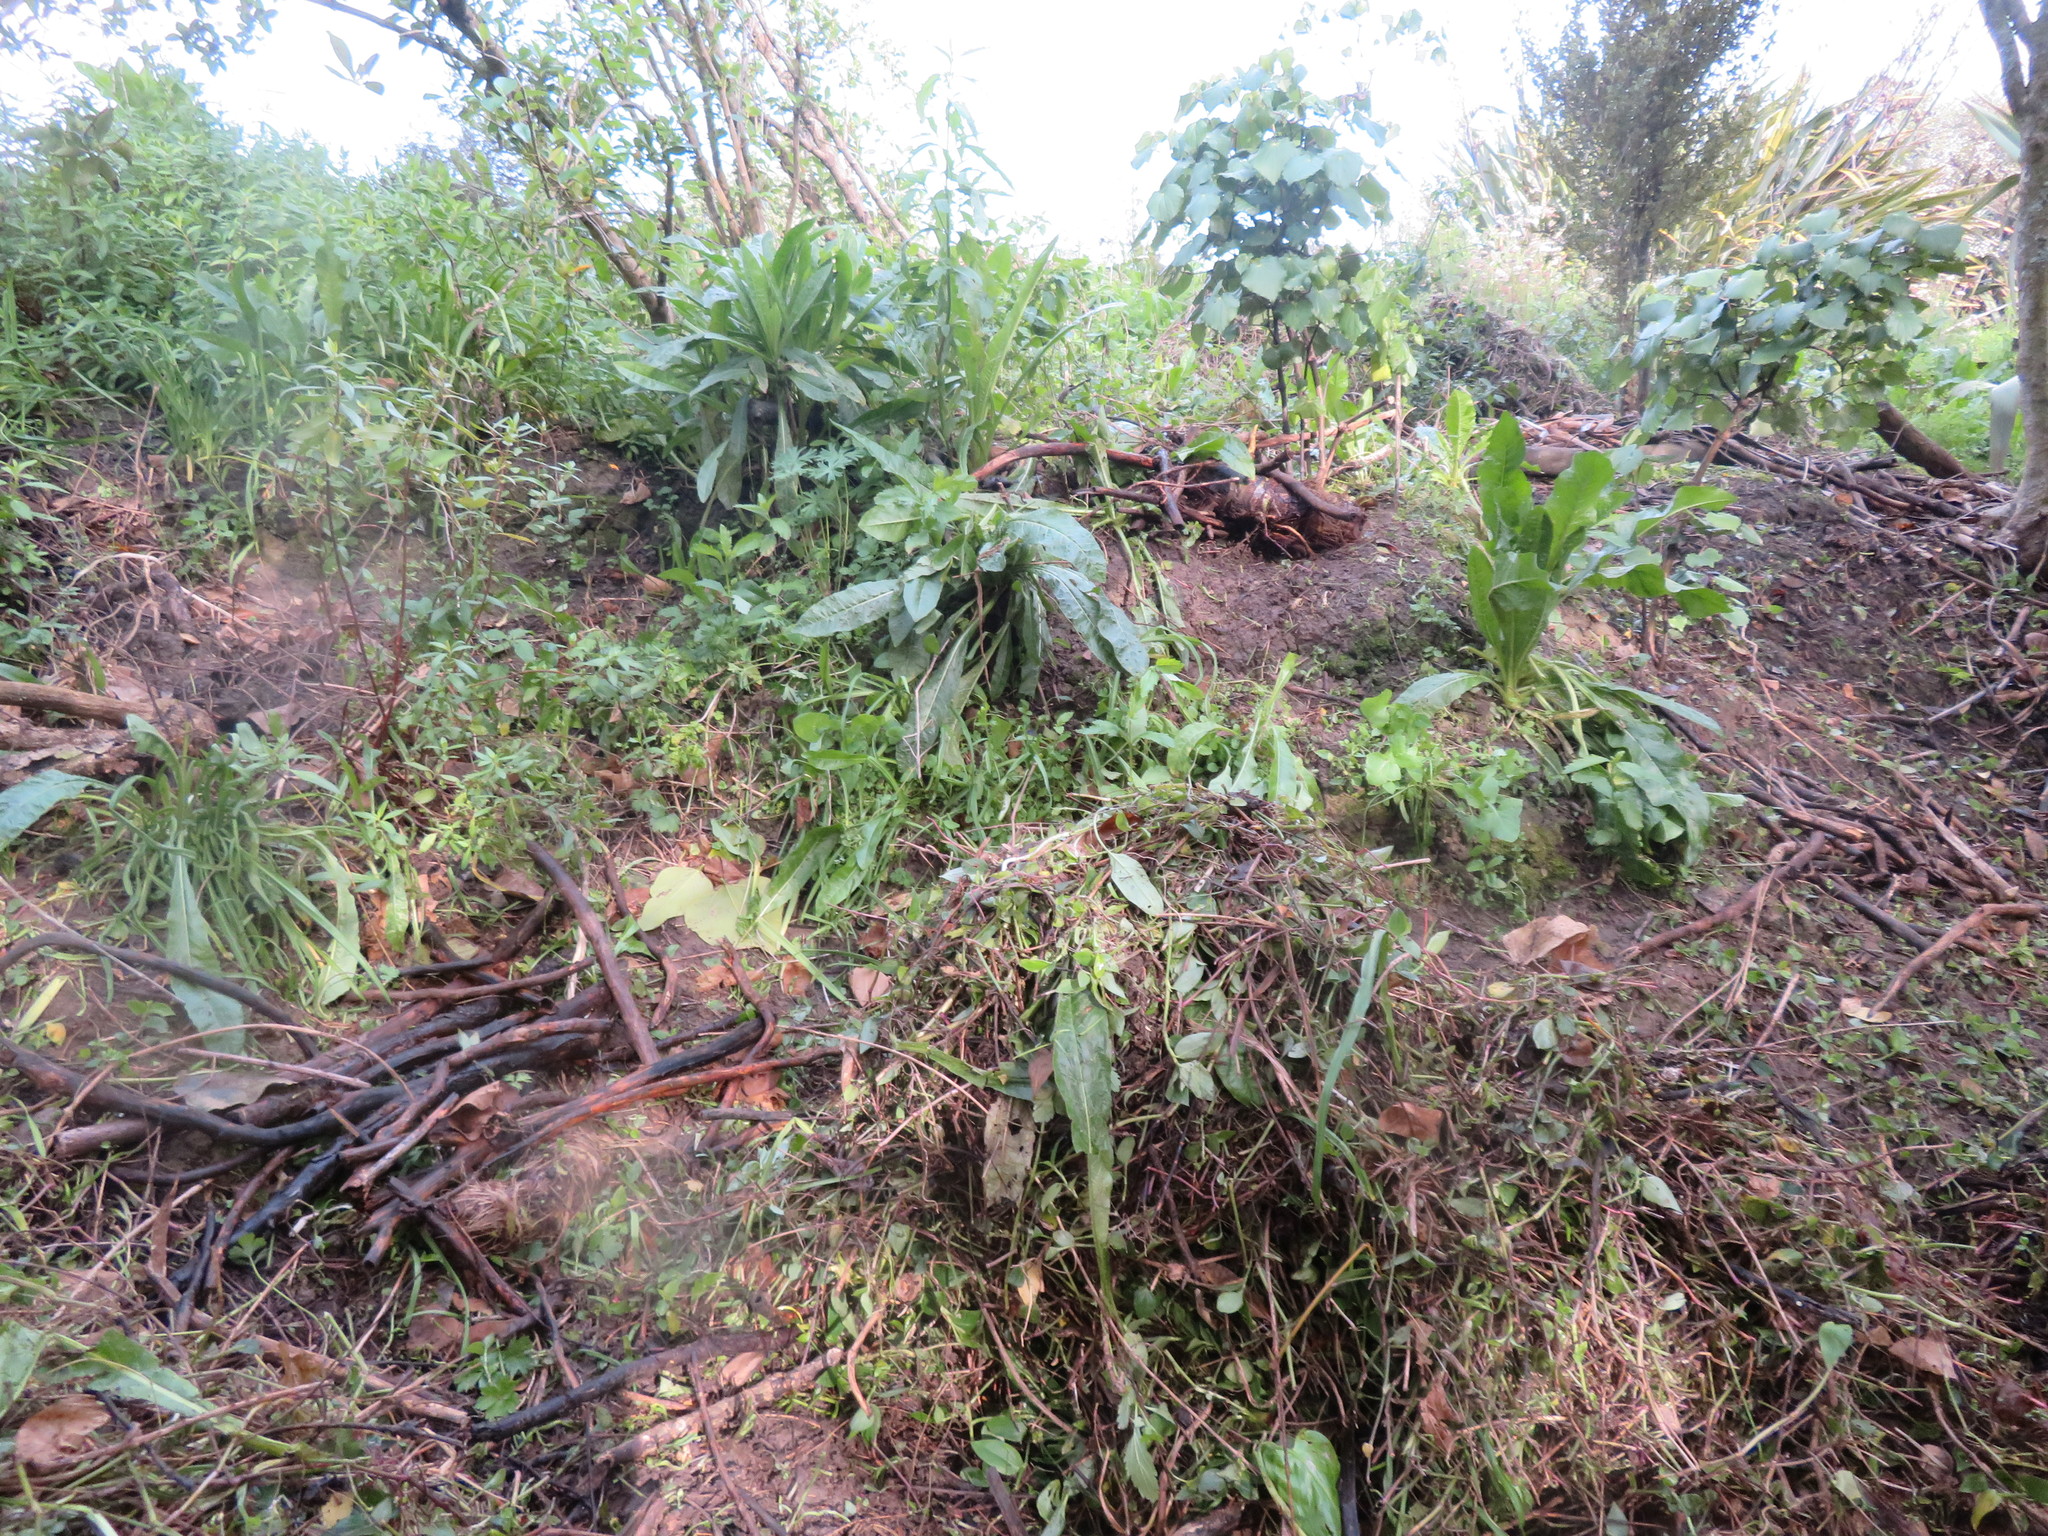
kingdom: Plantae
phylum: Tracheophyta
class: Liliopsida
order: Commelinales
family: Commelinaceae
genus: Tradescantia
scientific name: Tradescantia fluminensis
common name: Wandering-jew
